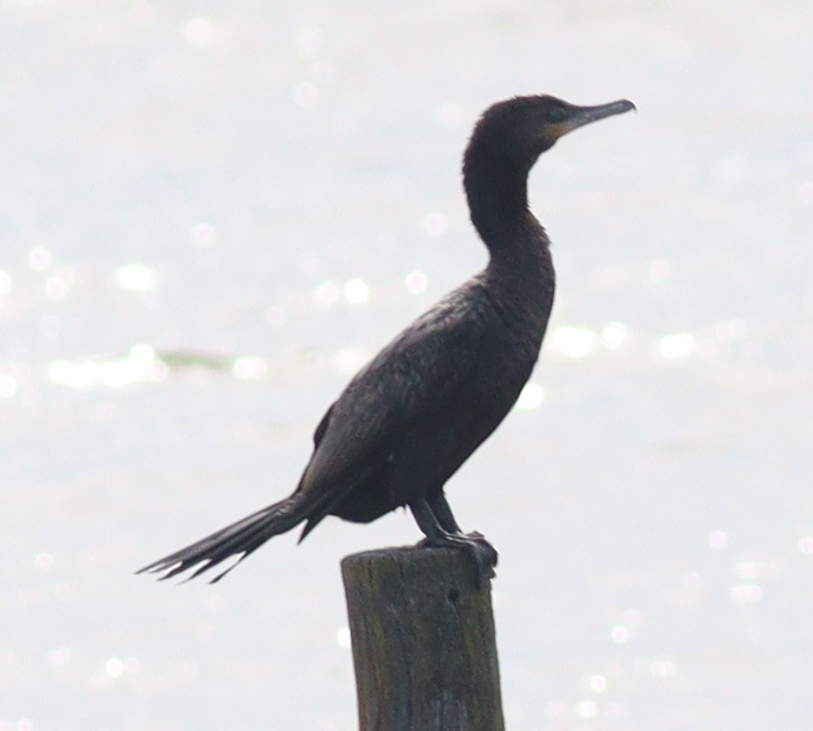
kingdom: Animalia
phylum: Chordata
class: Aves
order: Suliformes
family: Phalacrocoracidae
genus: Phalacrocorax
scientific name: Phalacrocorax brasilianus
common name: Neotropic cormorant
